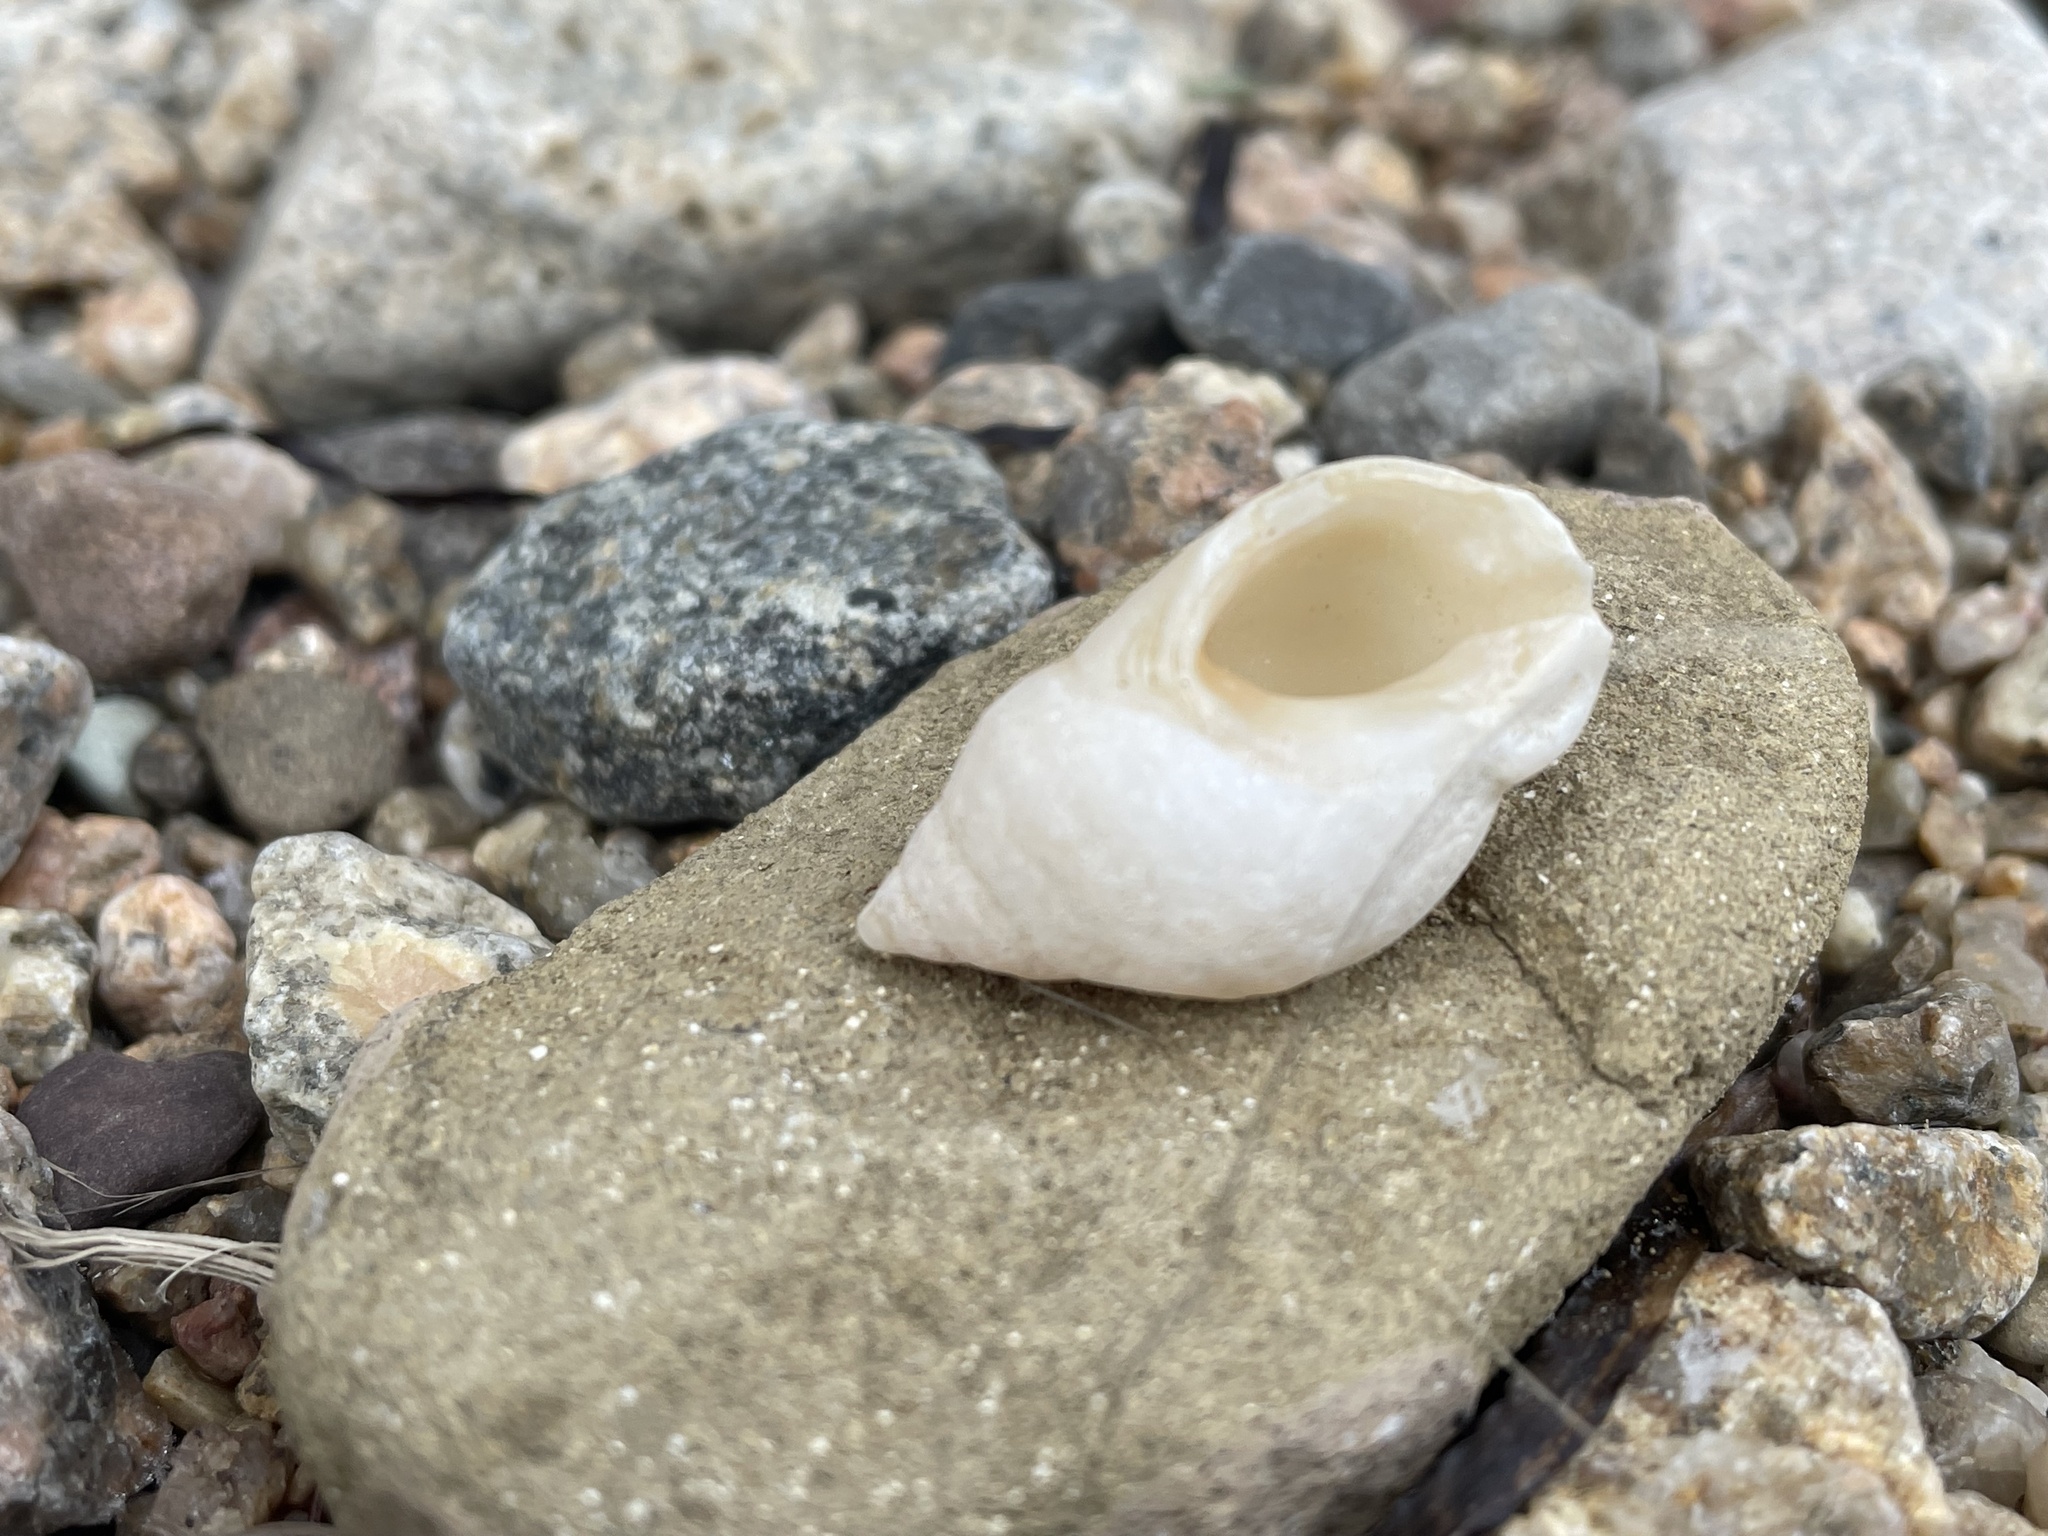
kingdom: Animalia
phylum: Mollusca
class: Gastropoda
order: Neogastropoda
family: Muricidae
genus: Nucella
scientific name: Nucella lapillus
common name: Dog whelk
